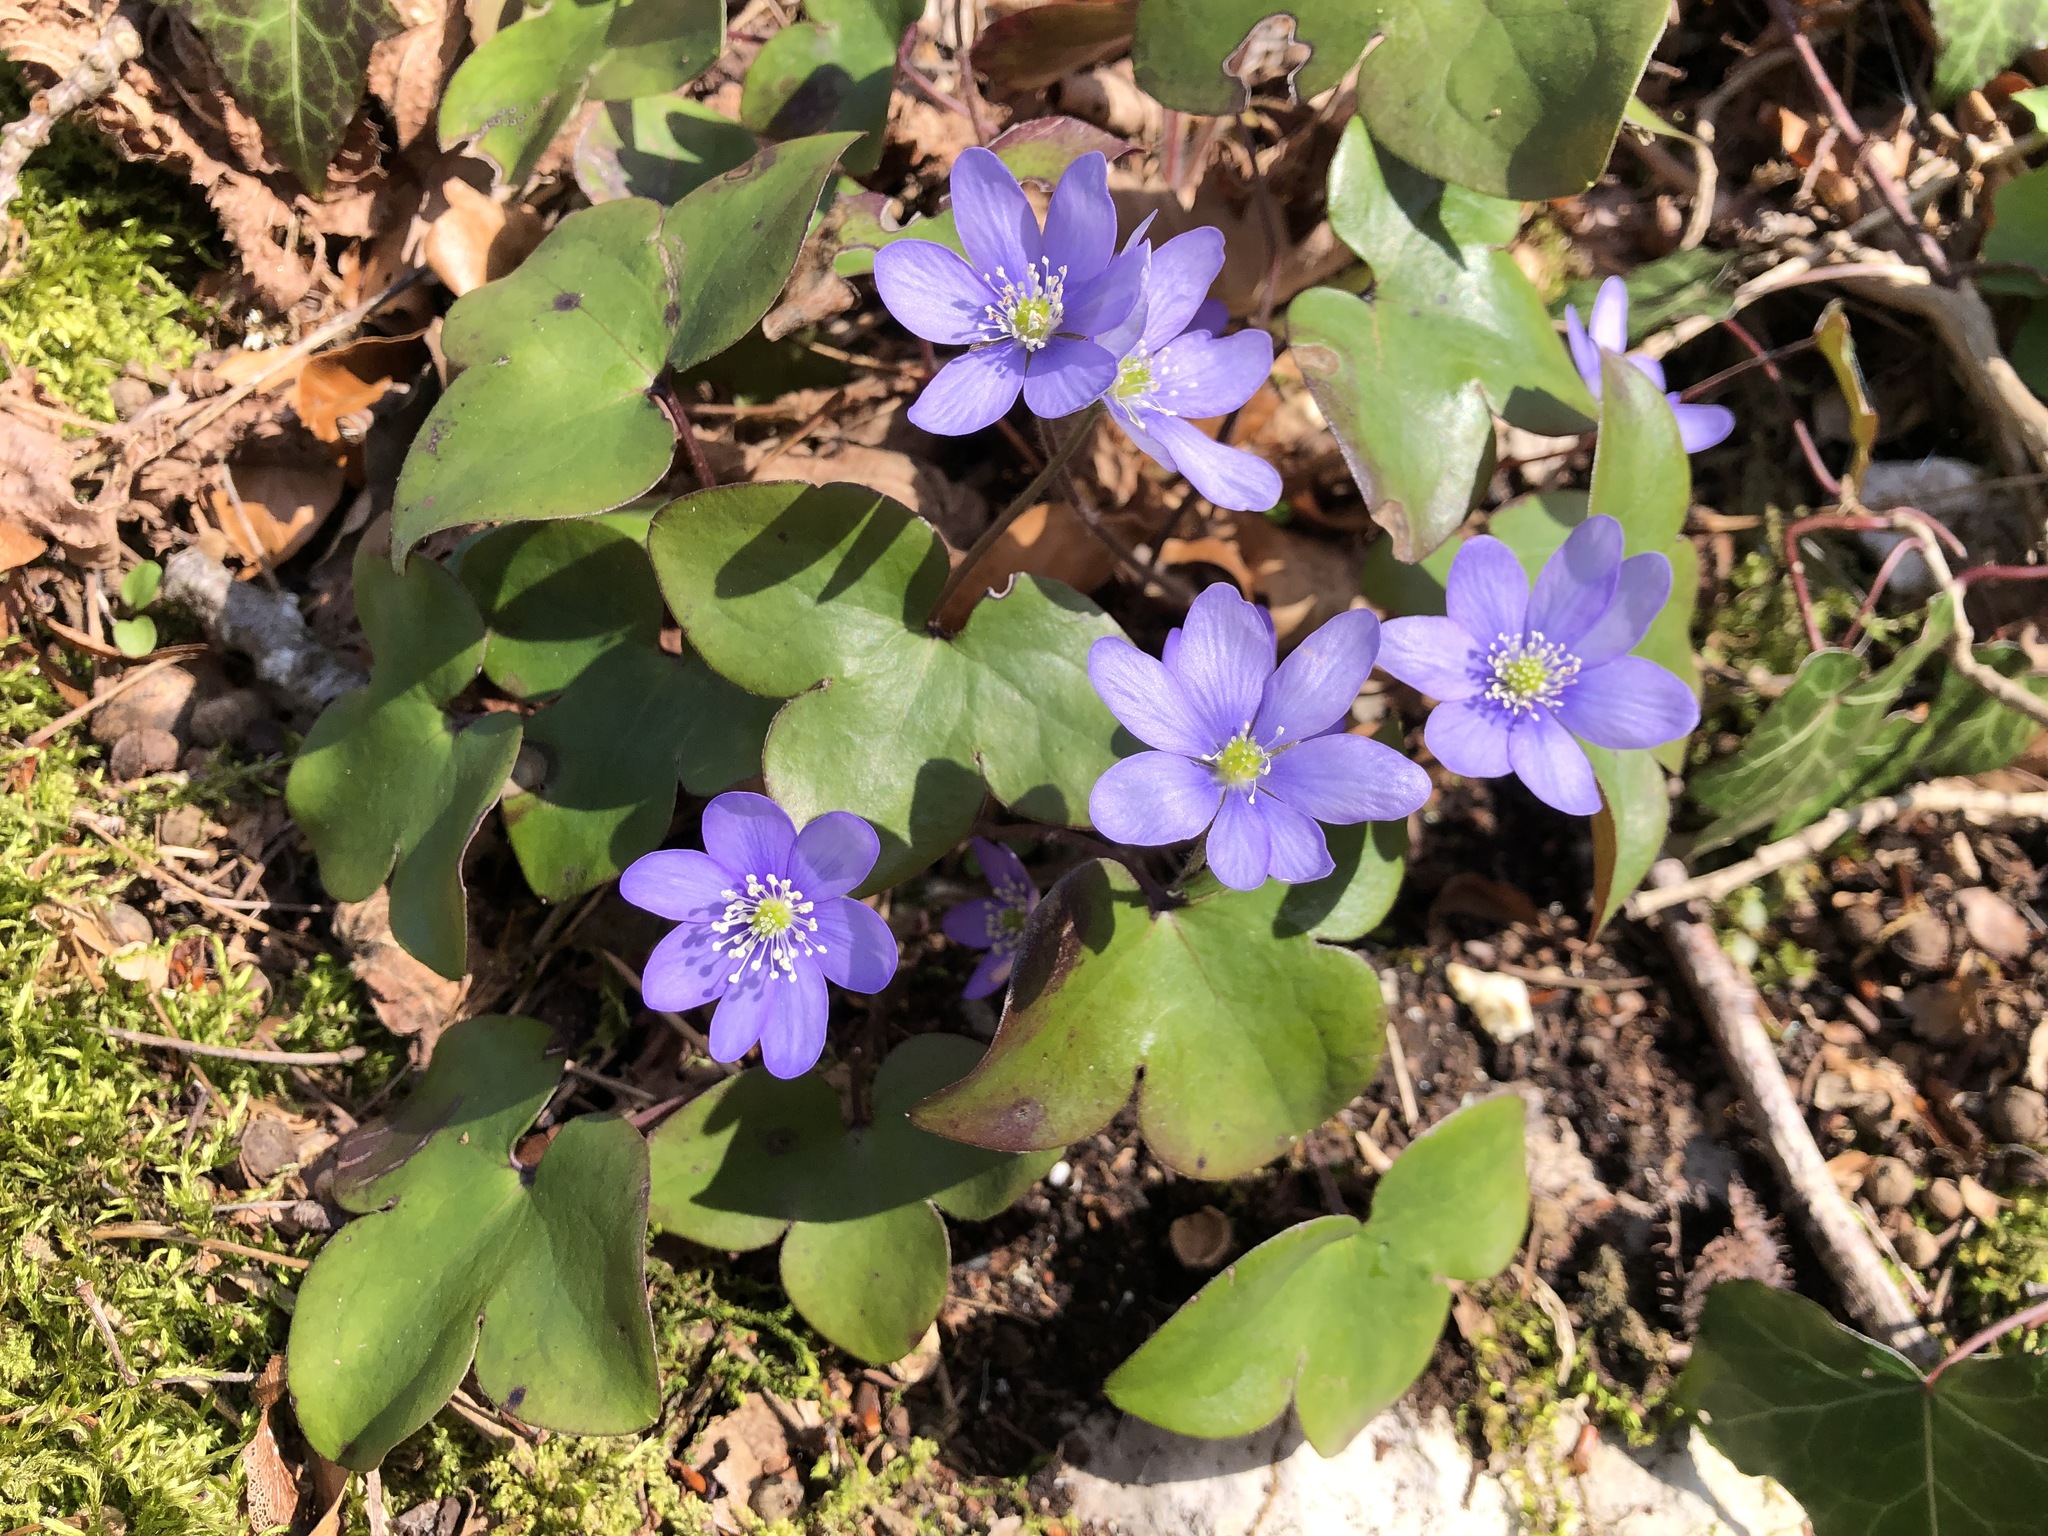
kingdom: Plantae
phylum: Tracheophyta
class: Magnoliopsida
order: Ranunculales
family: Ranunculaceae
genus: Hepatica
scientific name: Hepatica nobilis
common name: Liverleaf
